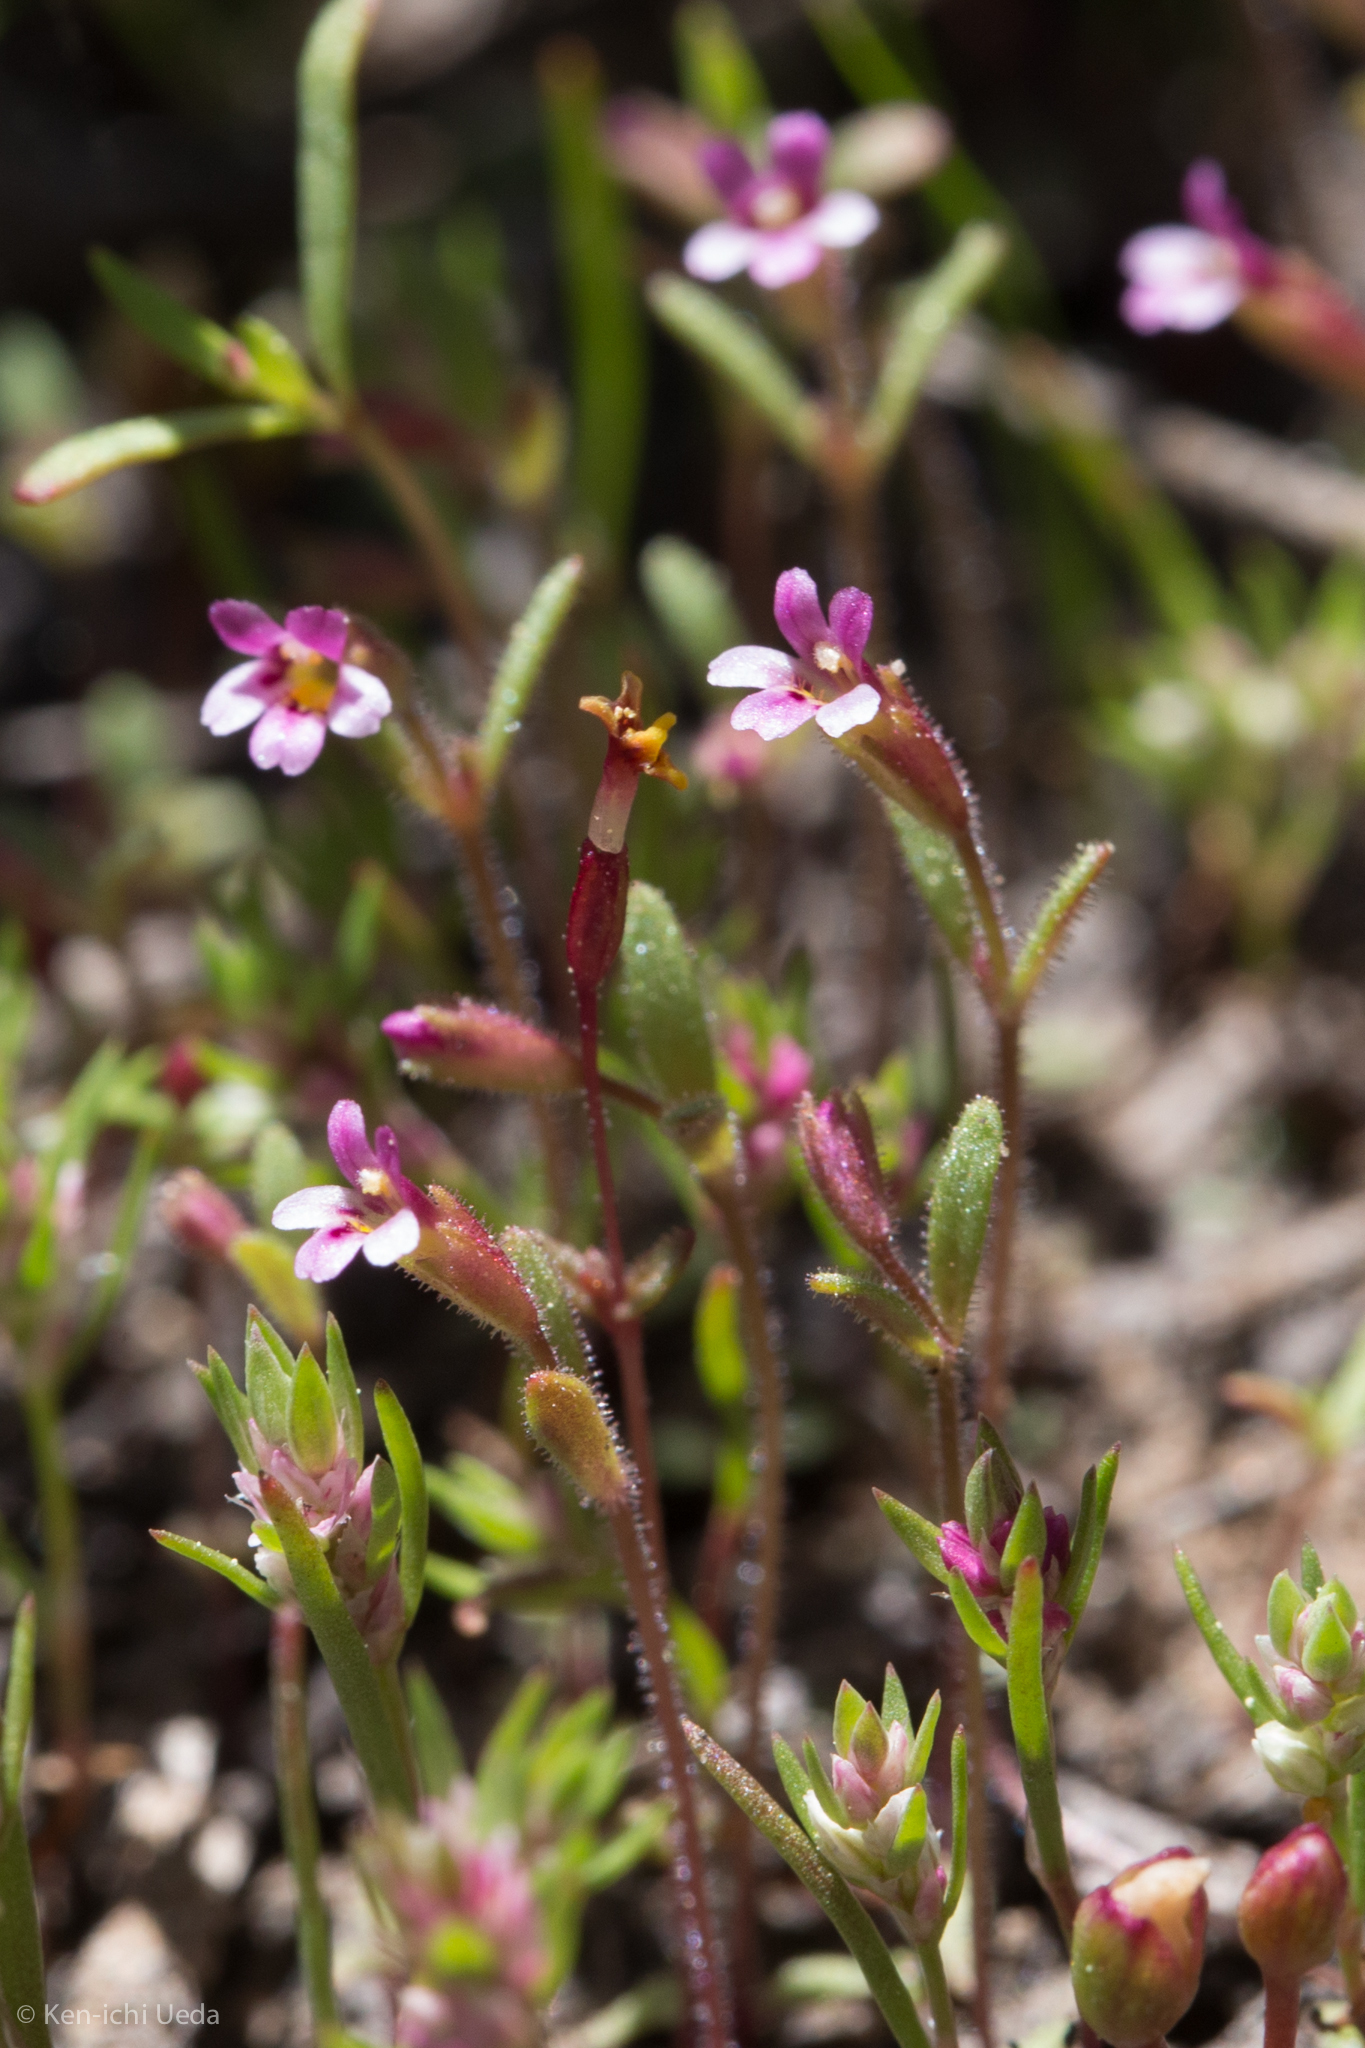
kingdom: Plantae
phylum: Tracheophyta
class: Magnoliopsida
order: Lamiales
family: Phrymaceae
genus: Erythranthe
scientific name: Erythranthe breweri
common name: Brewer's monkeyflower
